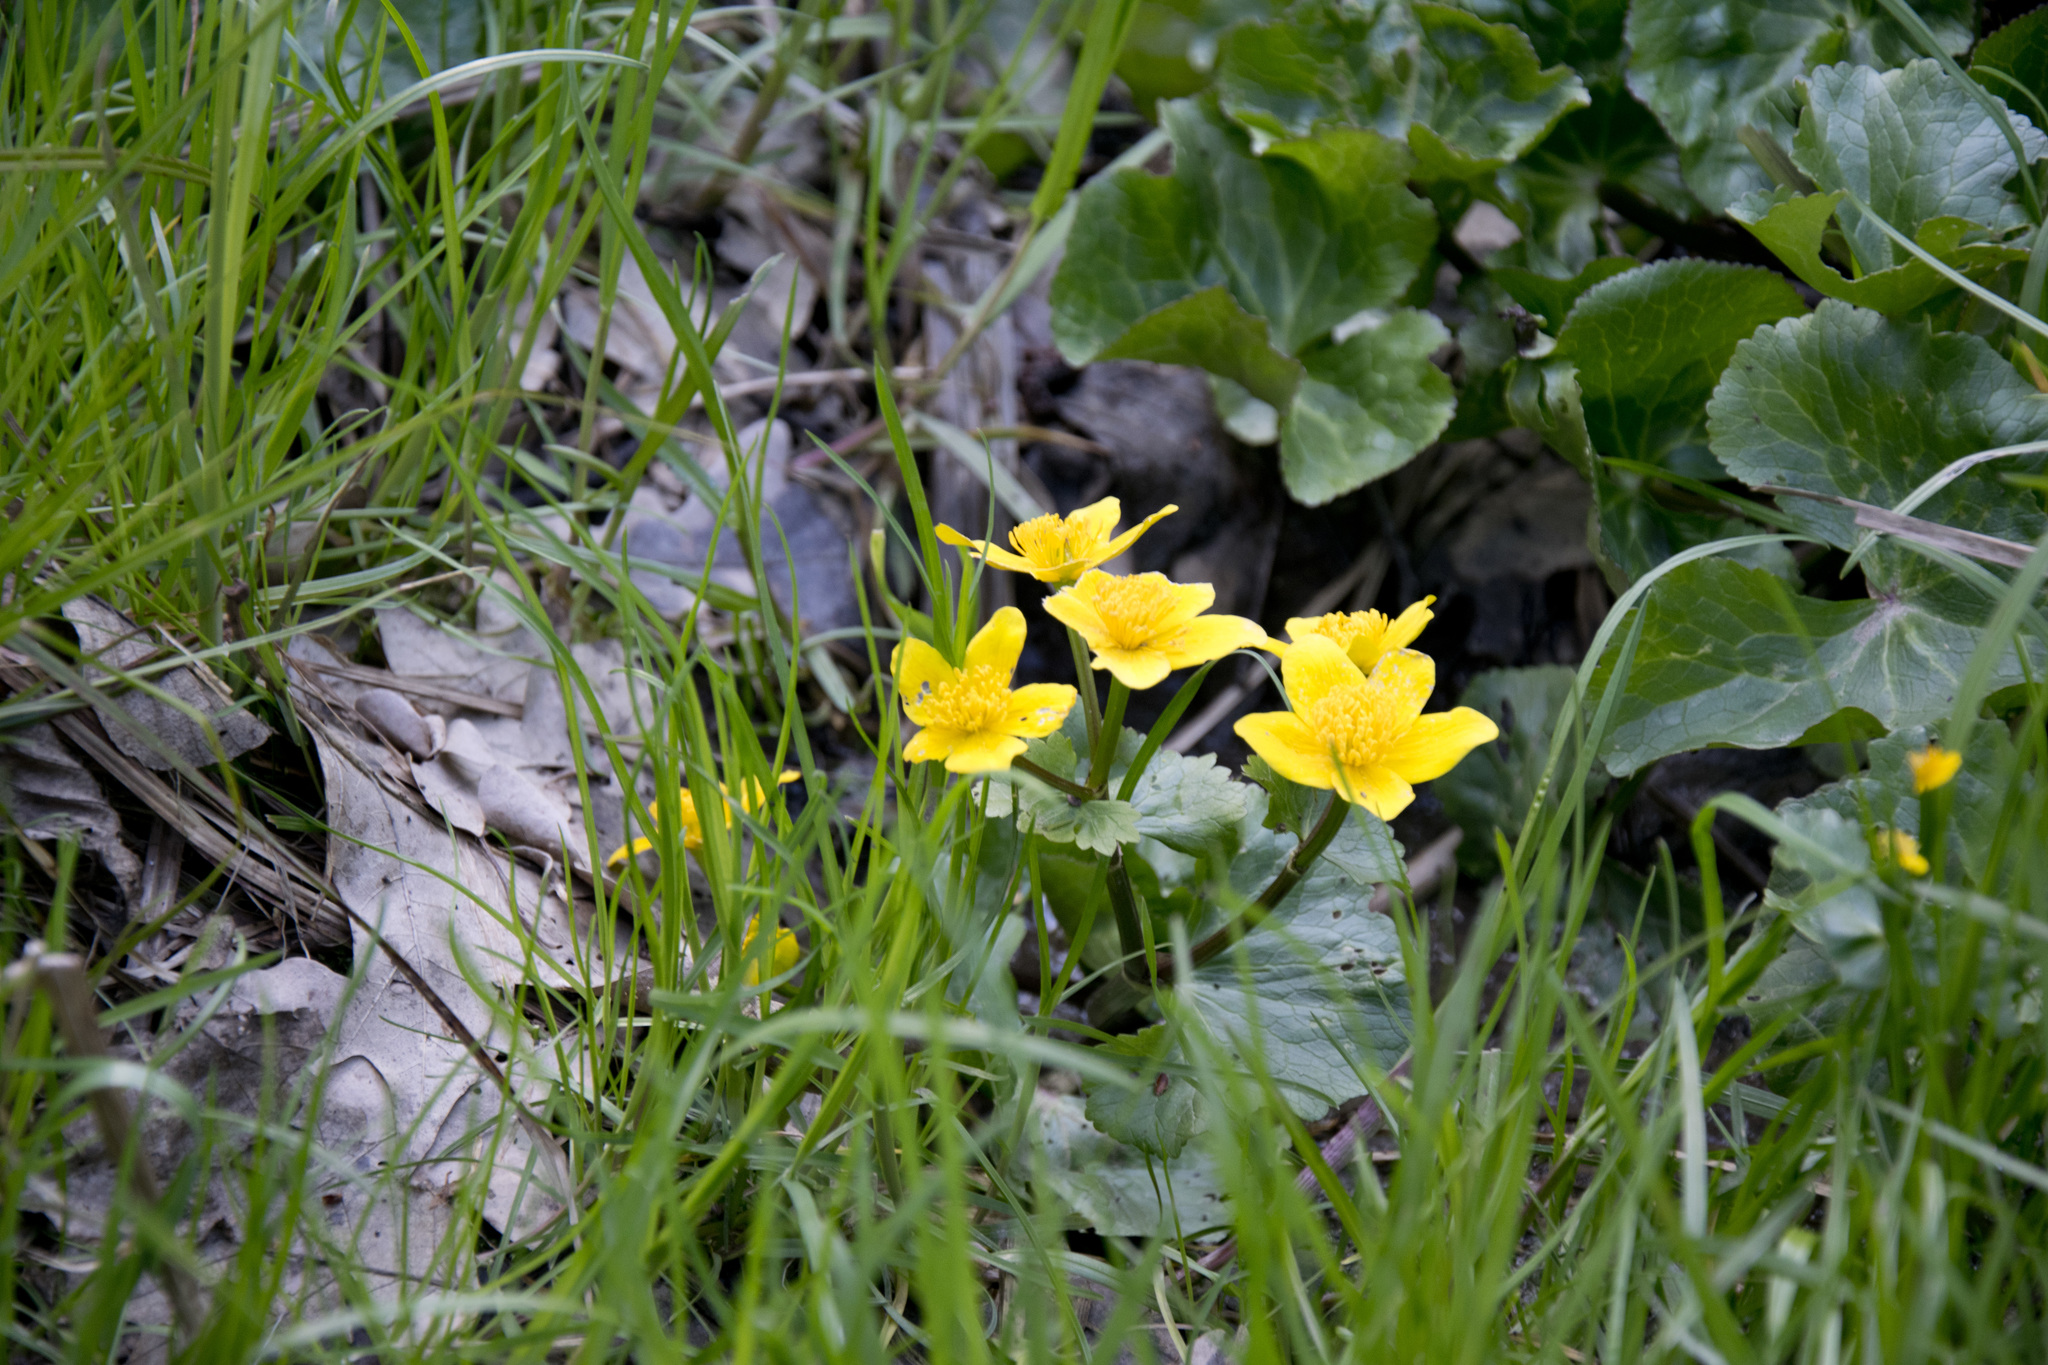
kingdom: Plantae
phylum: Tracheophyta
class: Magnoliopsida
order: Ranunculales
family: Ranunculaceae
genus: Caltha
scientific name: Caltha palustris
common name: Marsh marigold
